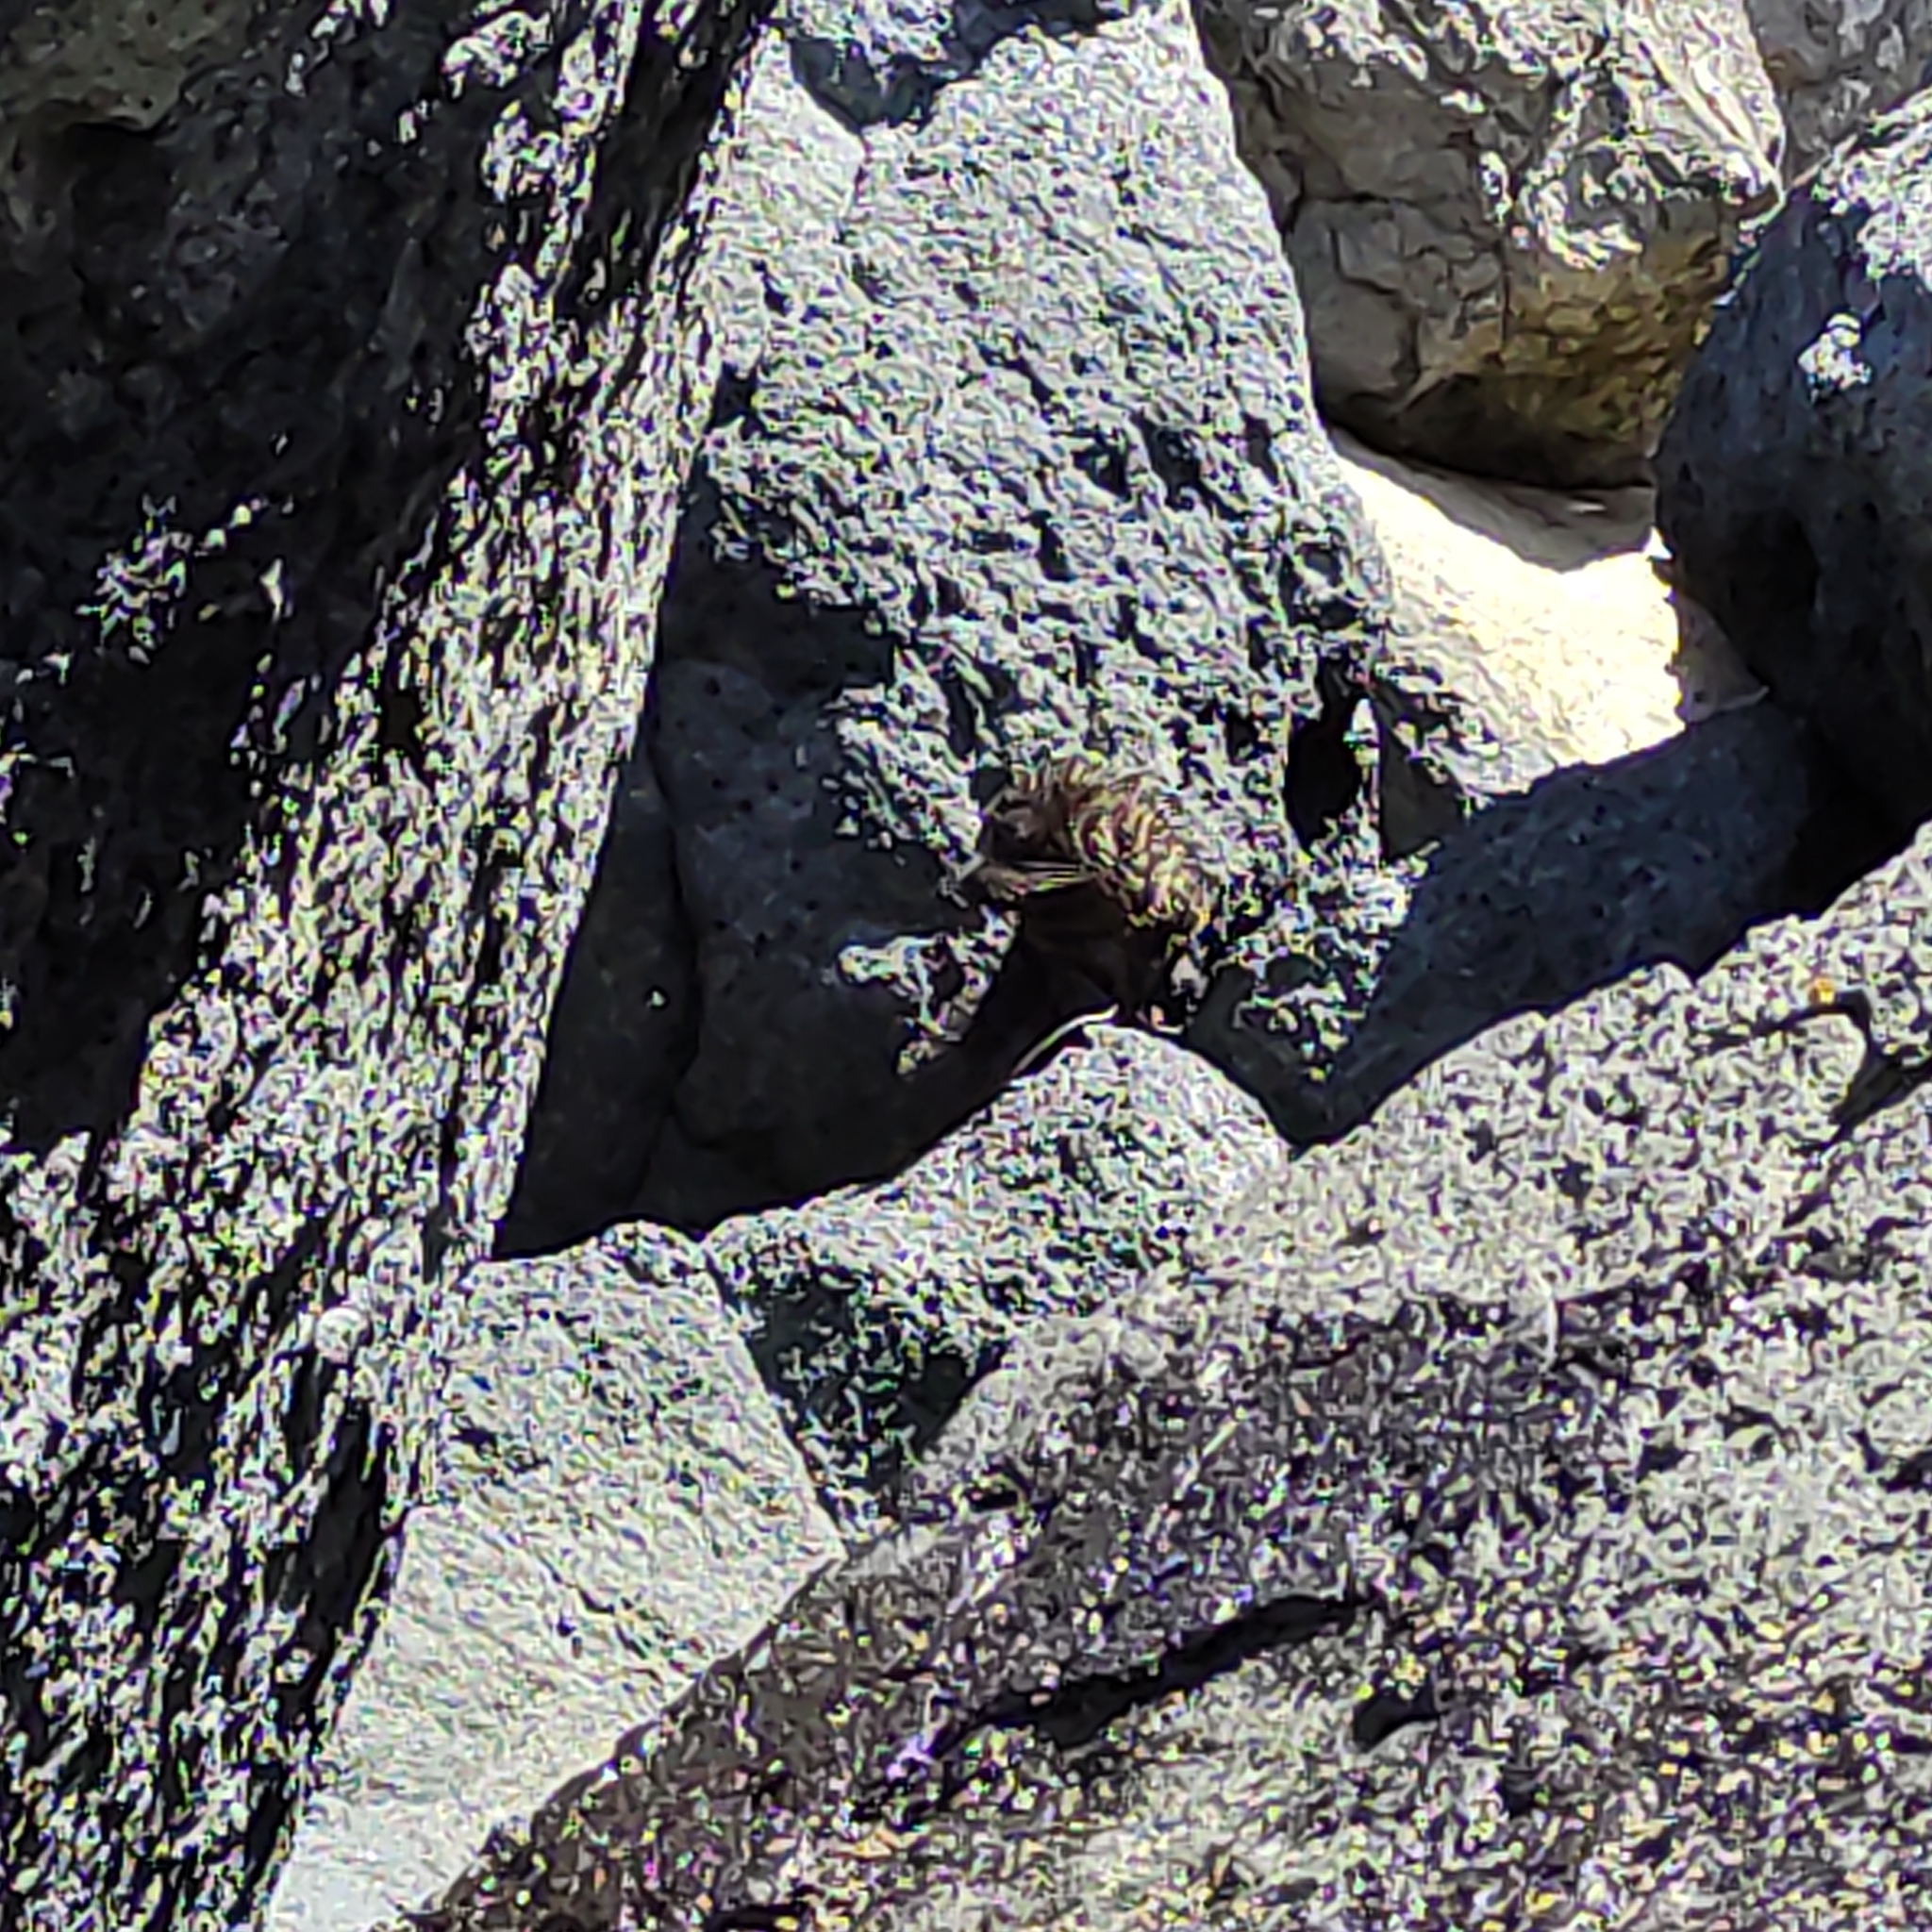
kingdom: Animalia
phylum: Chordata
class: Mammalia
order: Carnivora
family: Otariidae
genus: Arctocephalus
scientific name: Arctocephalus forsteri
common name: New zealand fur seal
